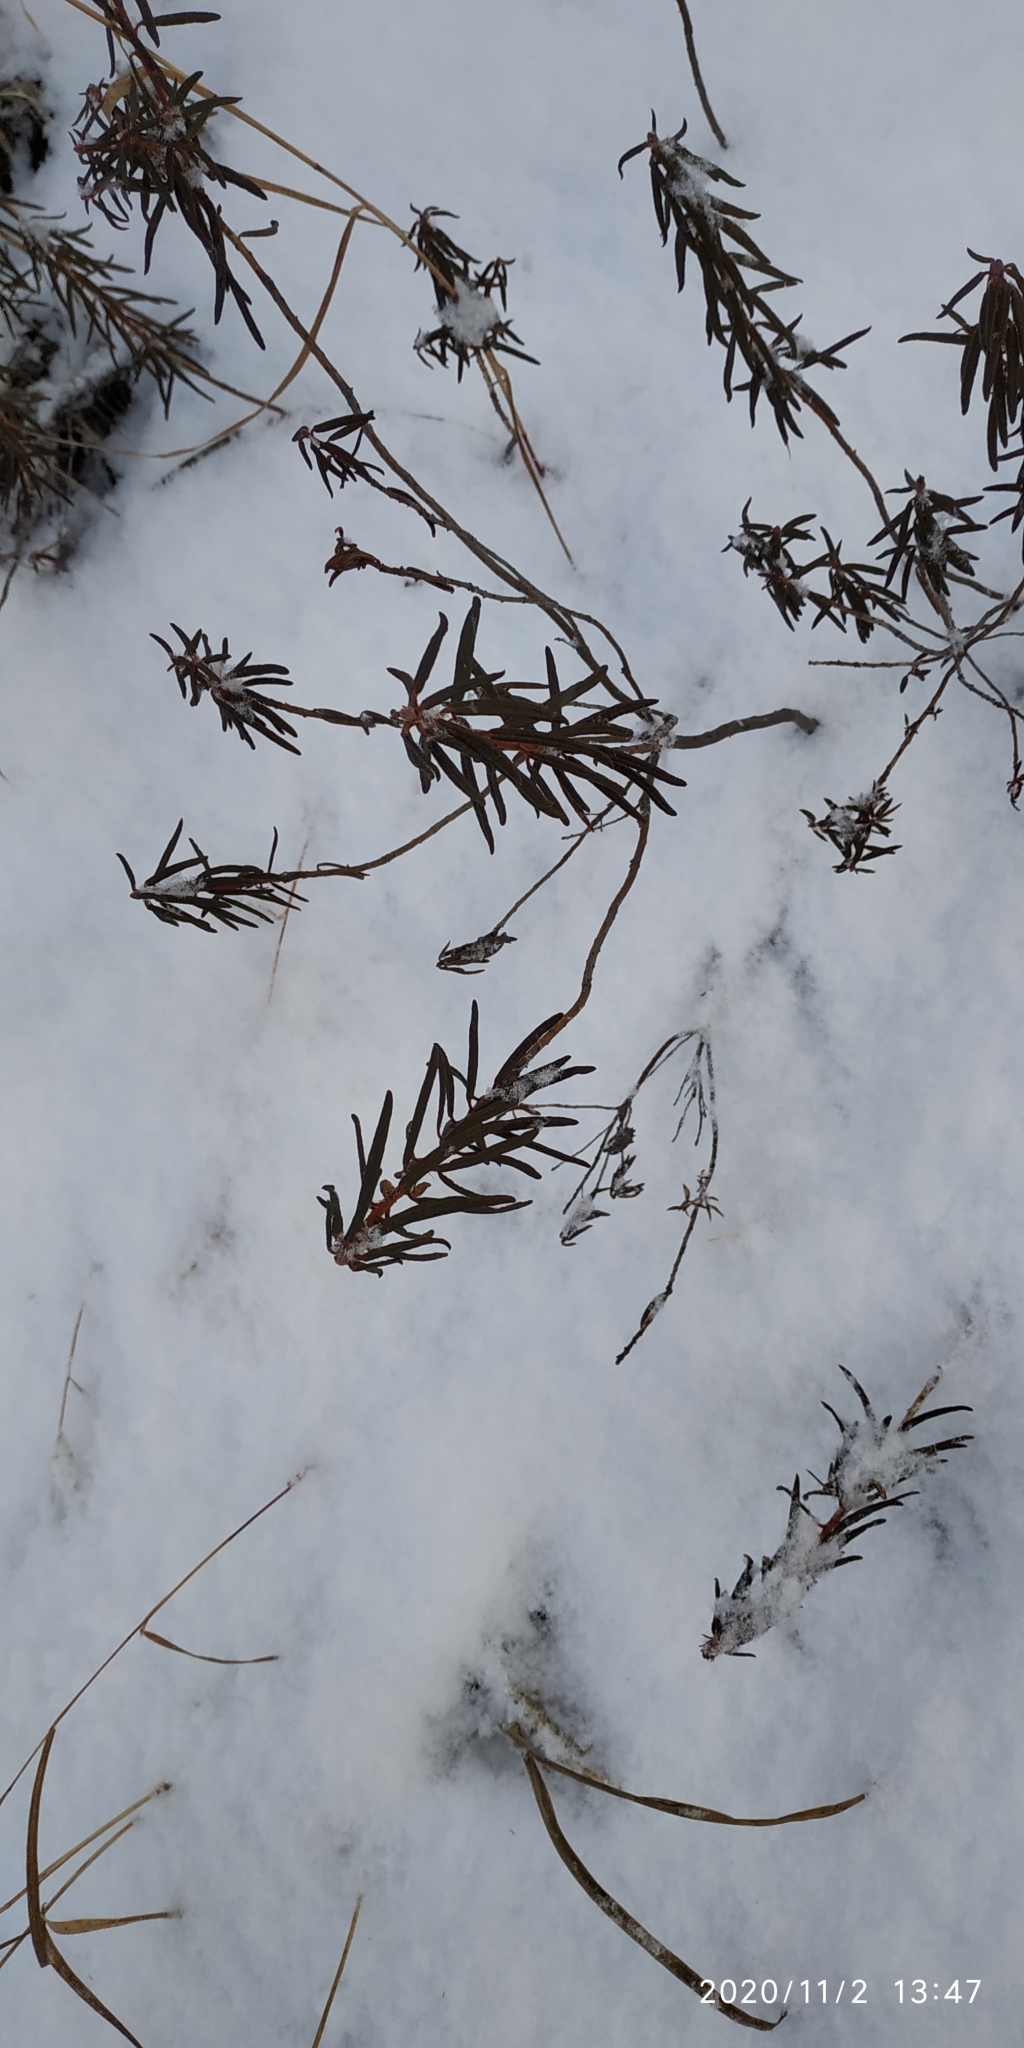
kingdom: Plantae
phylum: Tracheophyta
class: Magnoliopsida
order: Ericales
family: Ericaceae
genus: Rhododendron
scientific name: Rhododendron tomentosum
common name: Marsh labrador tea
